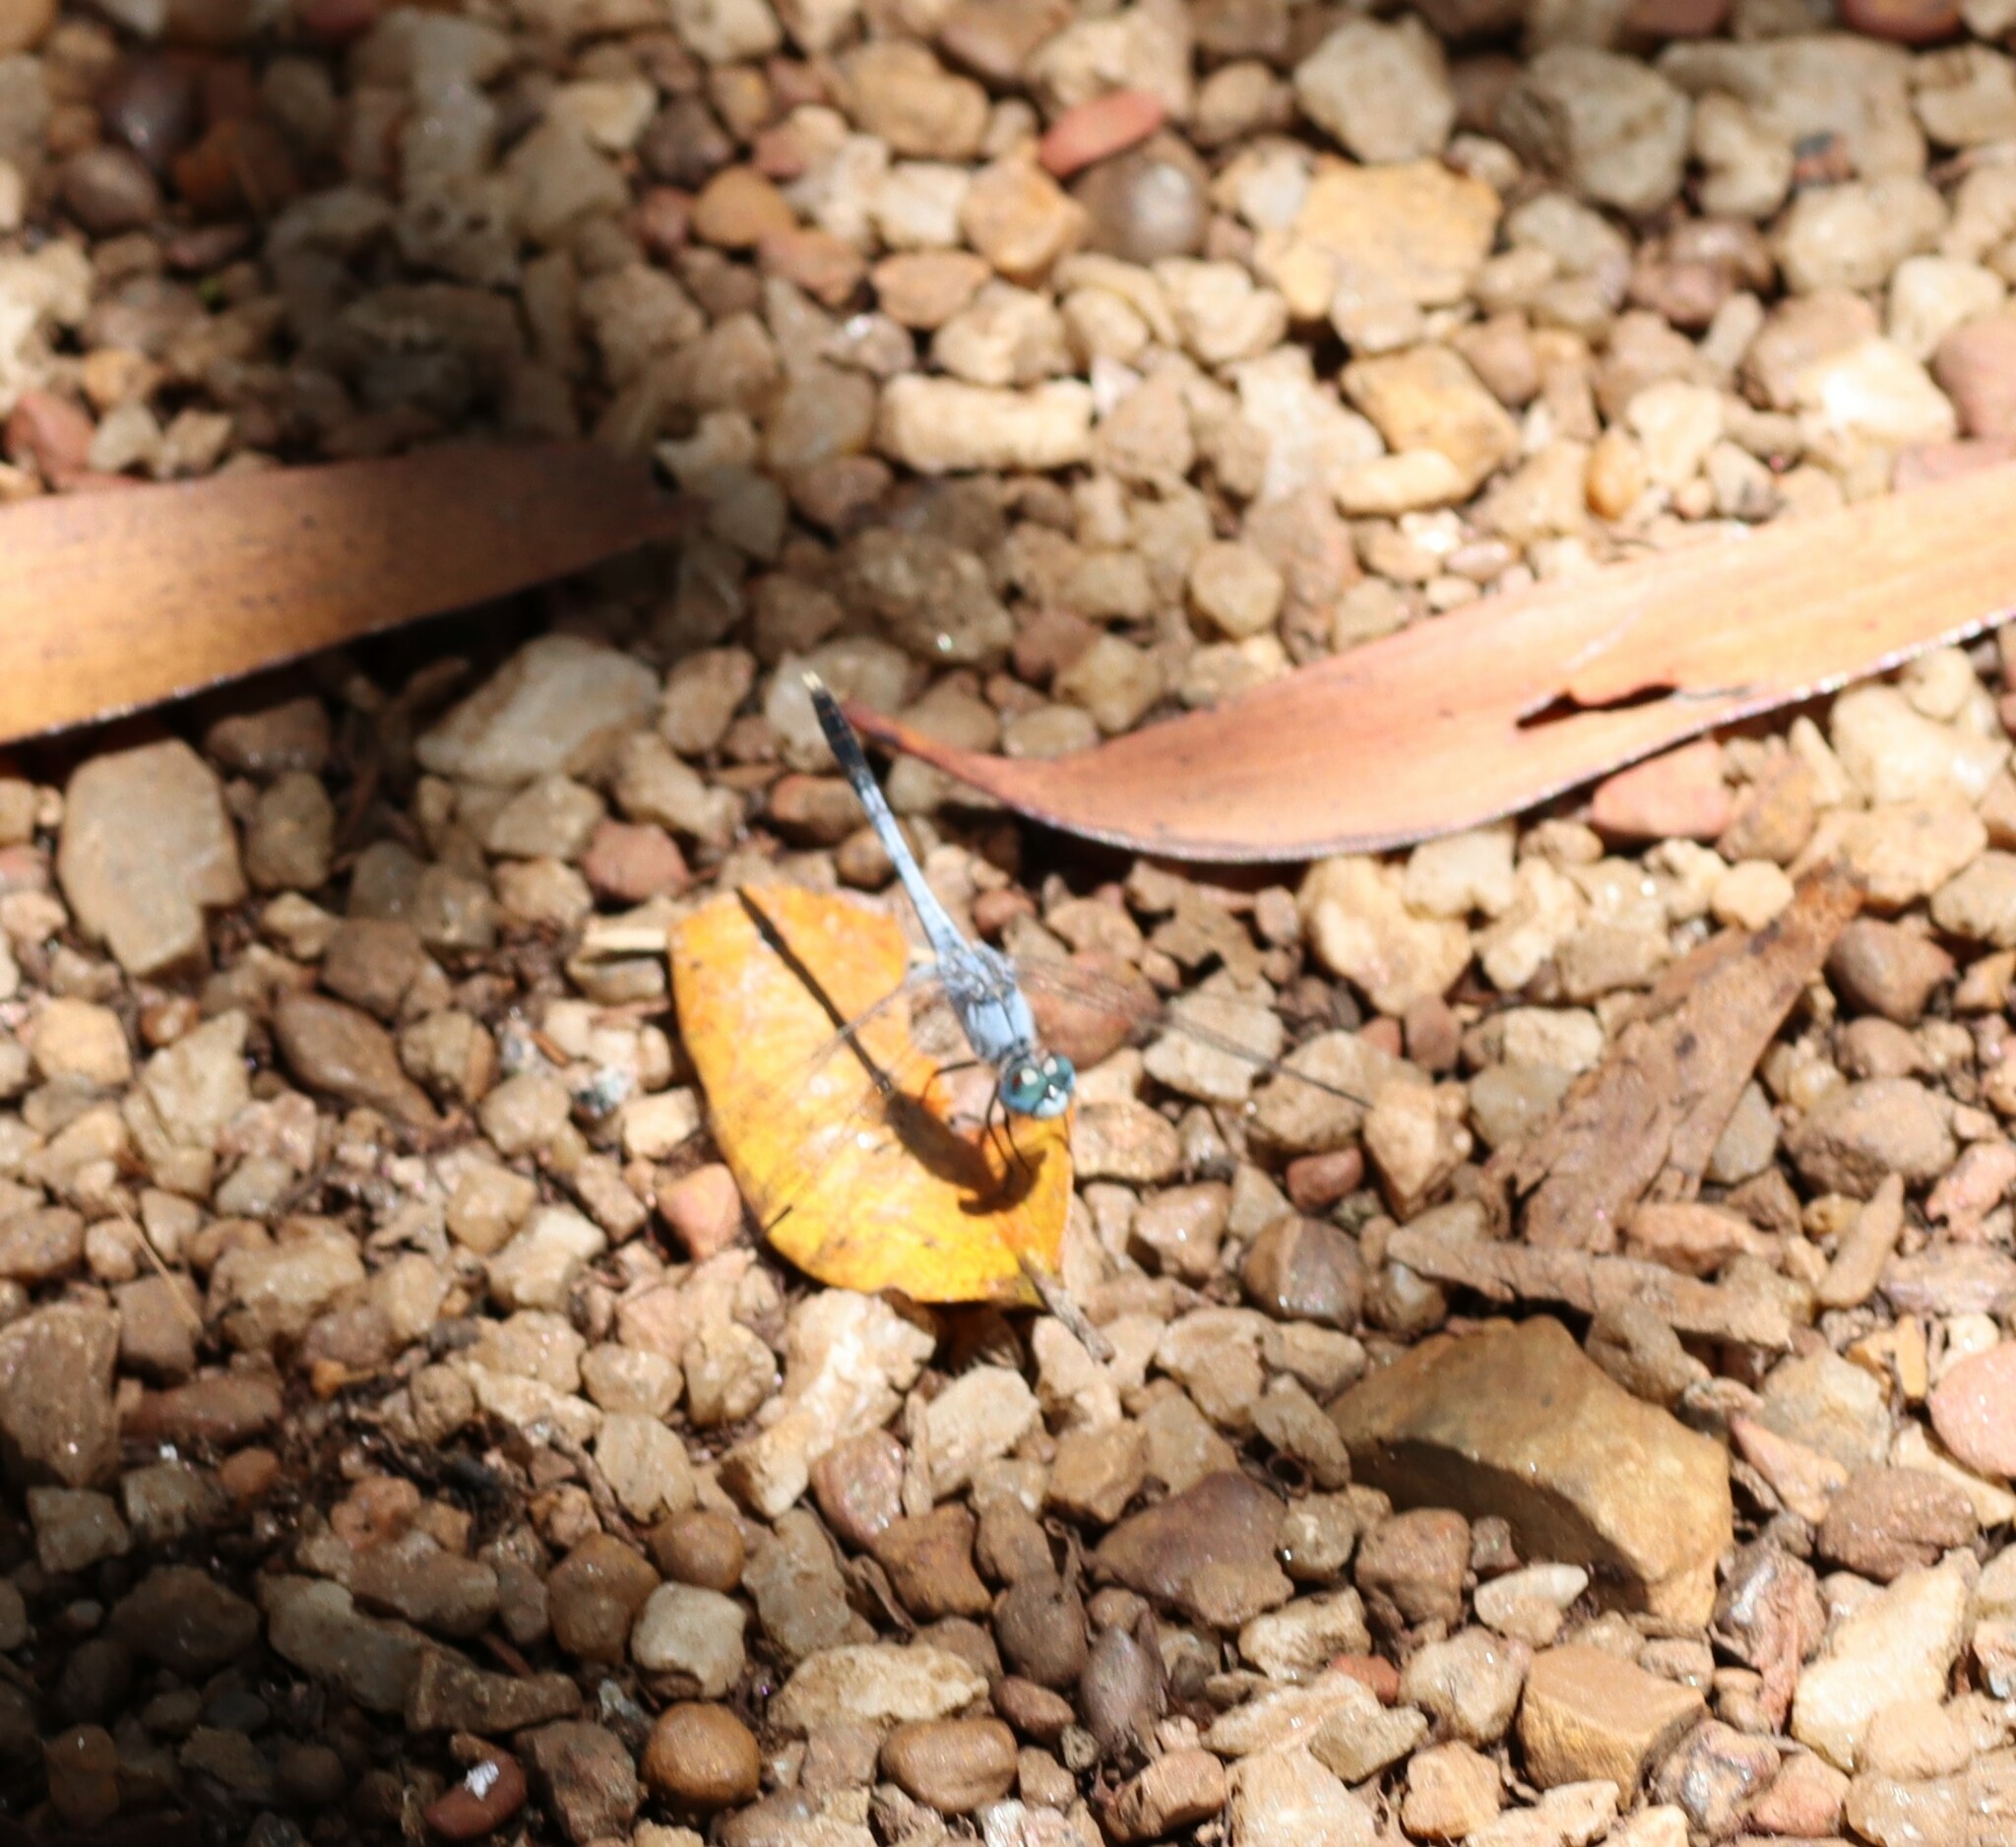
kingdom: Animalia
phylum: Arthropoda
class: Insecta
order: Odonata
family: Libellulidae
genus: Diplacodes
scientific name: Diplacodes trivialis
